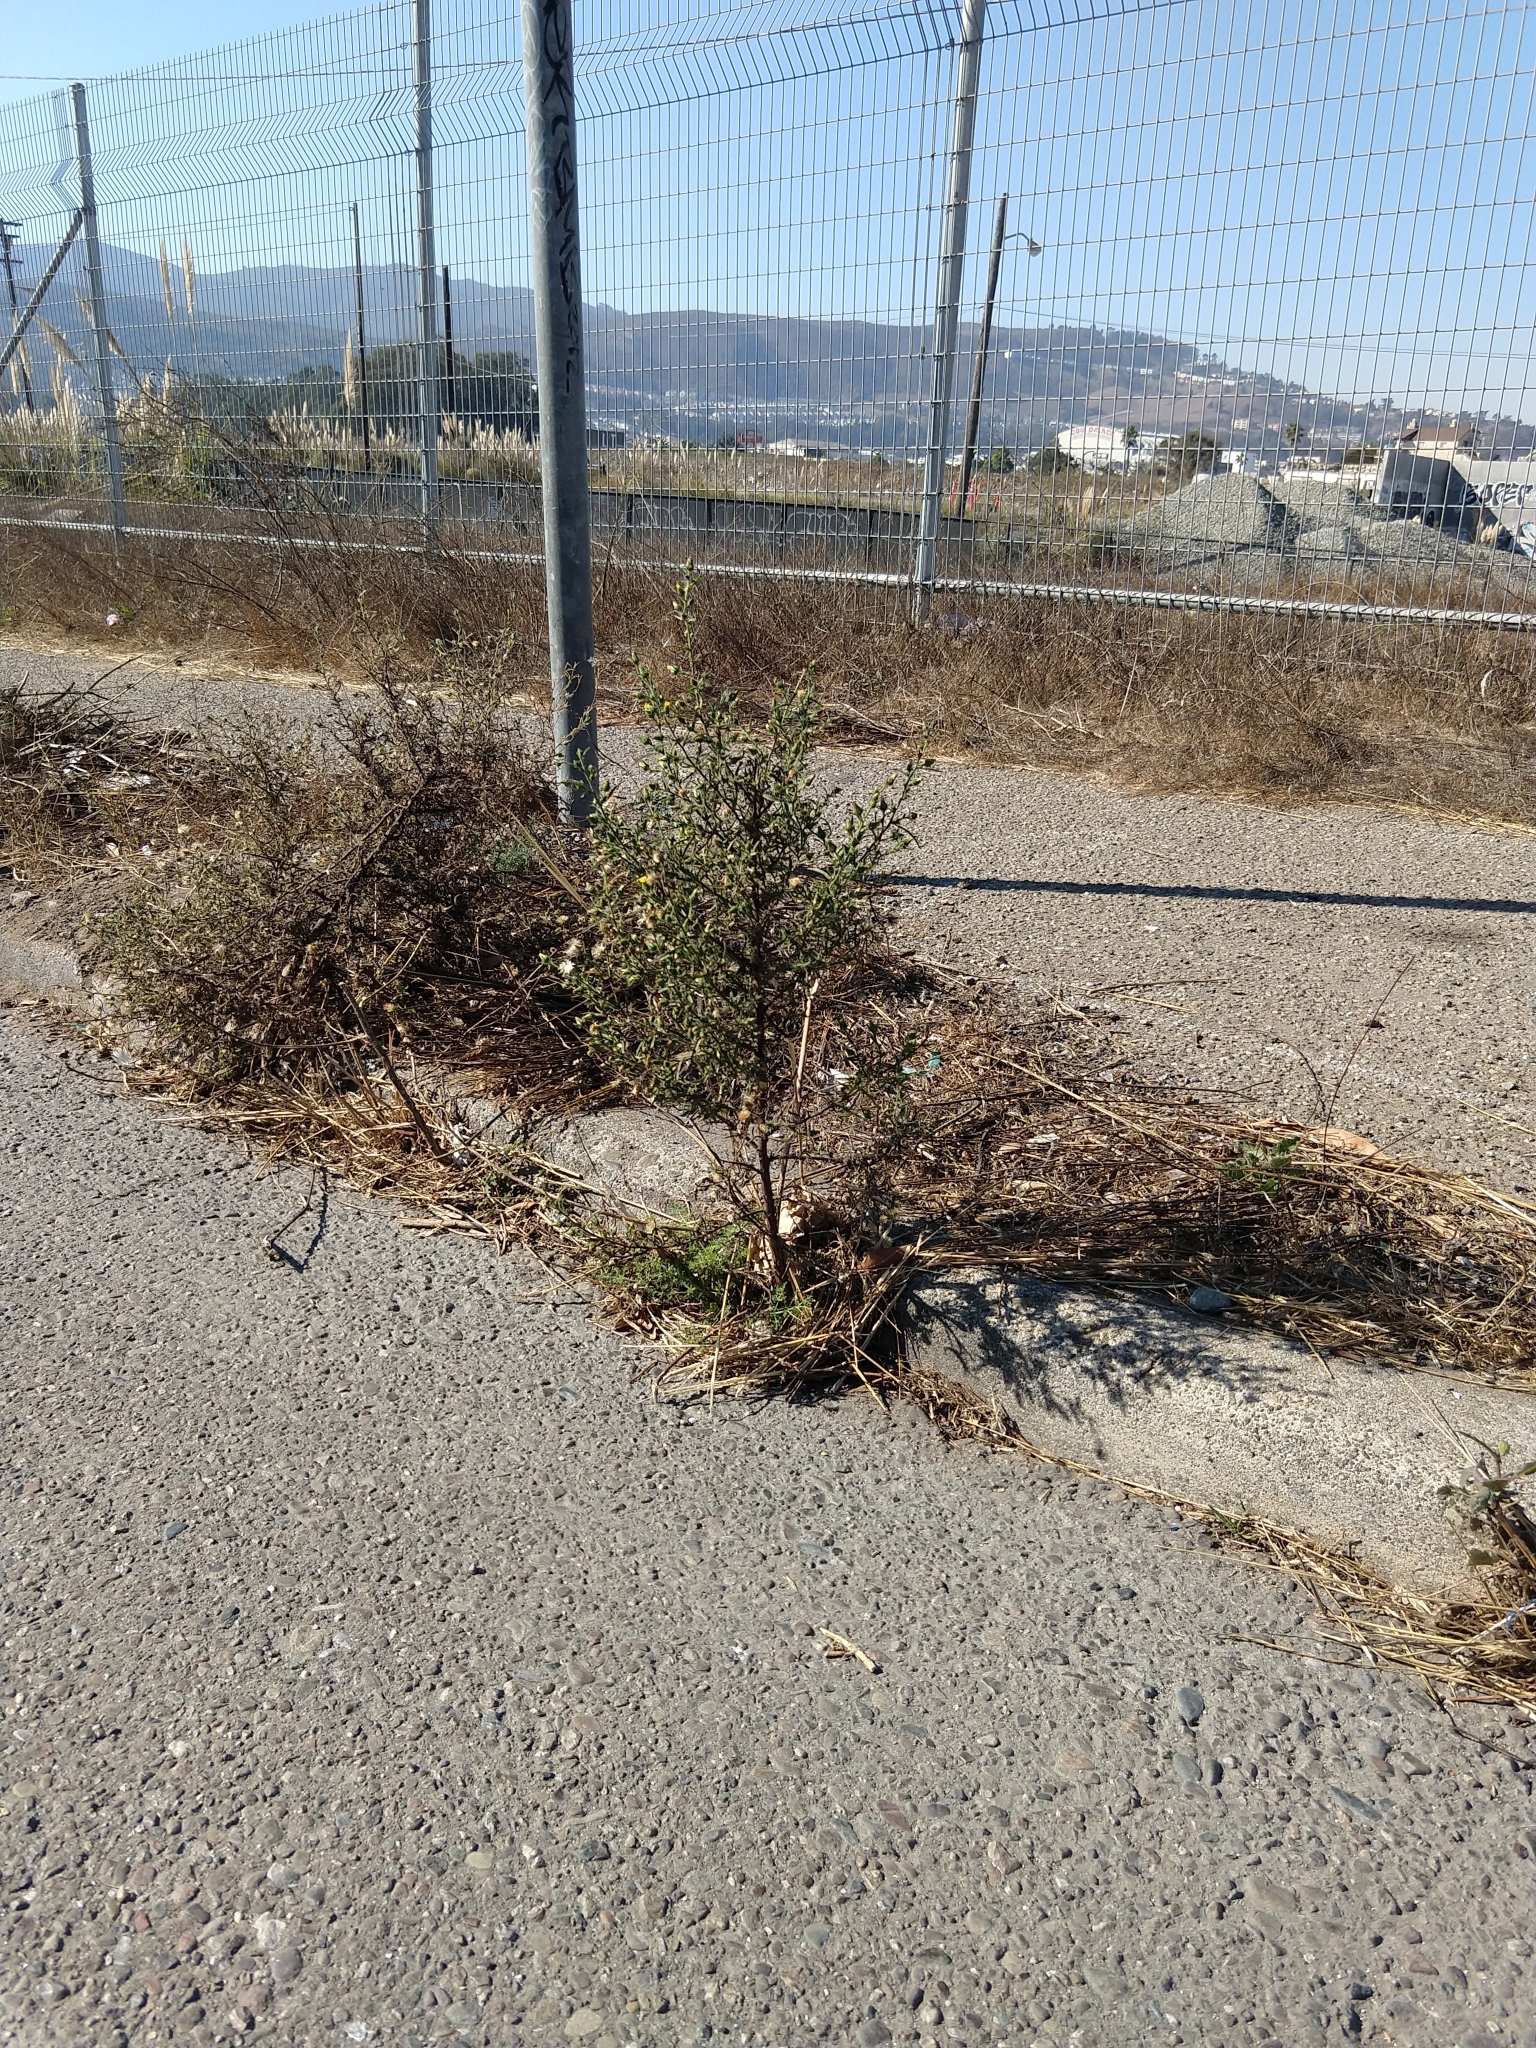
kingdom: Plantae
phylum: Tracheophyta
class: Magnoliopsida
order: Asterales
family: Asteraceae
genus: Dittrichia
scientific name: Dittrichia graveolens
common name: Stinking fleabane
